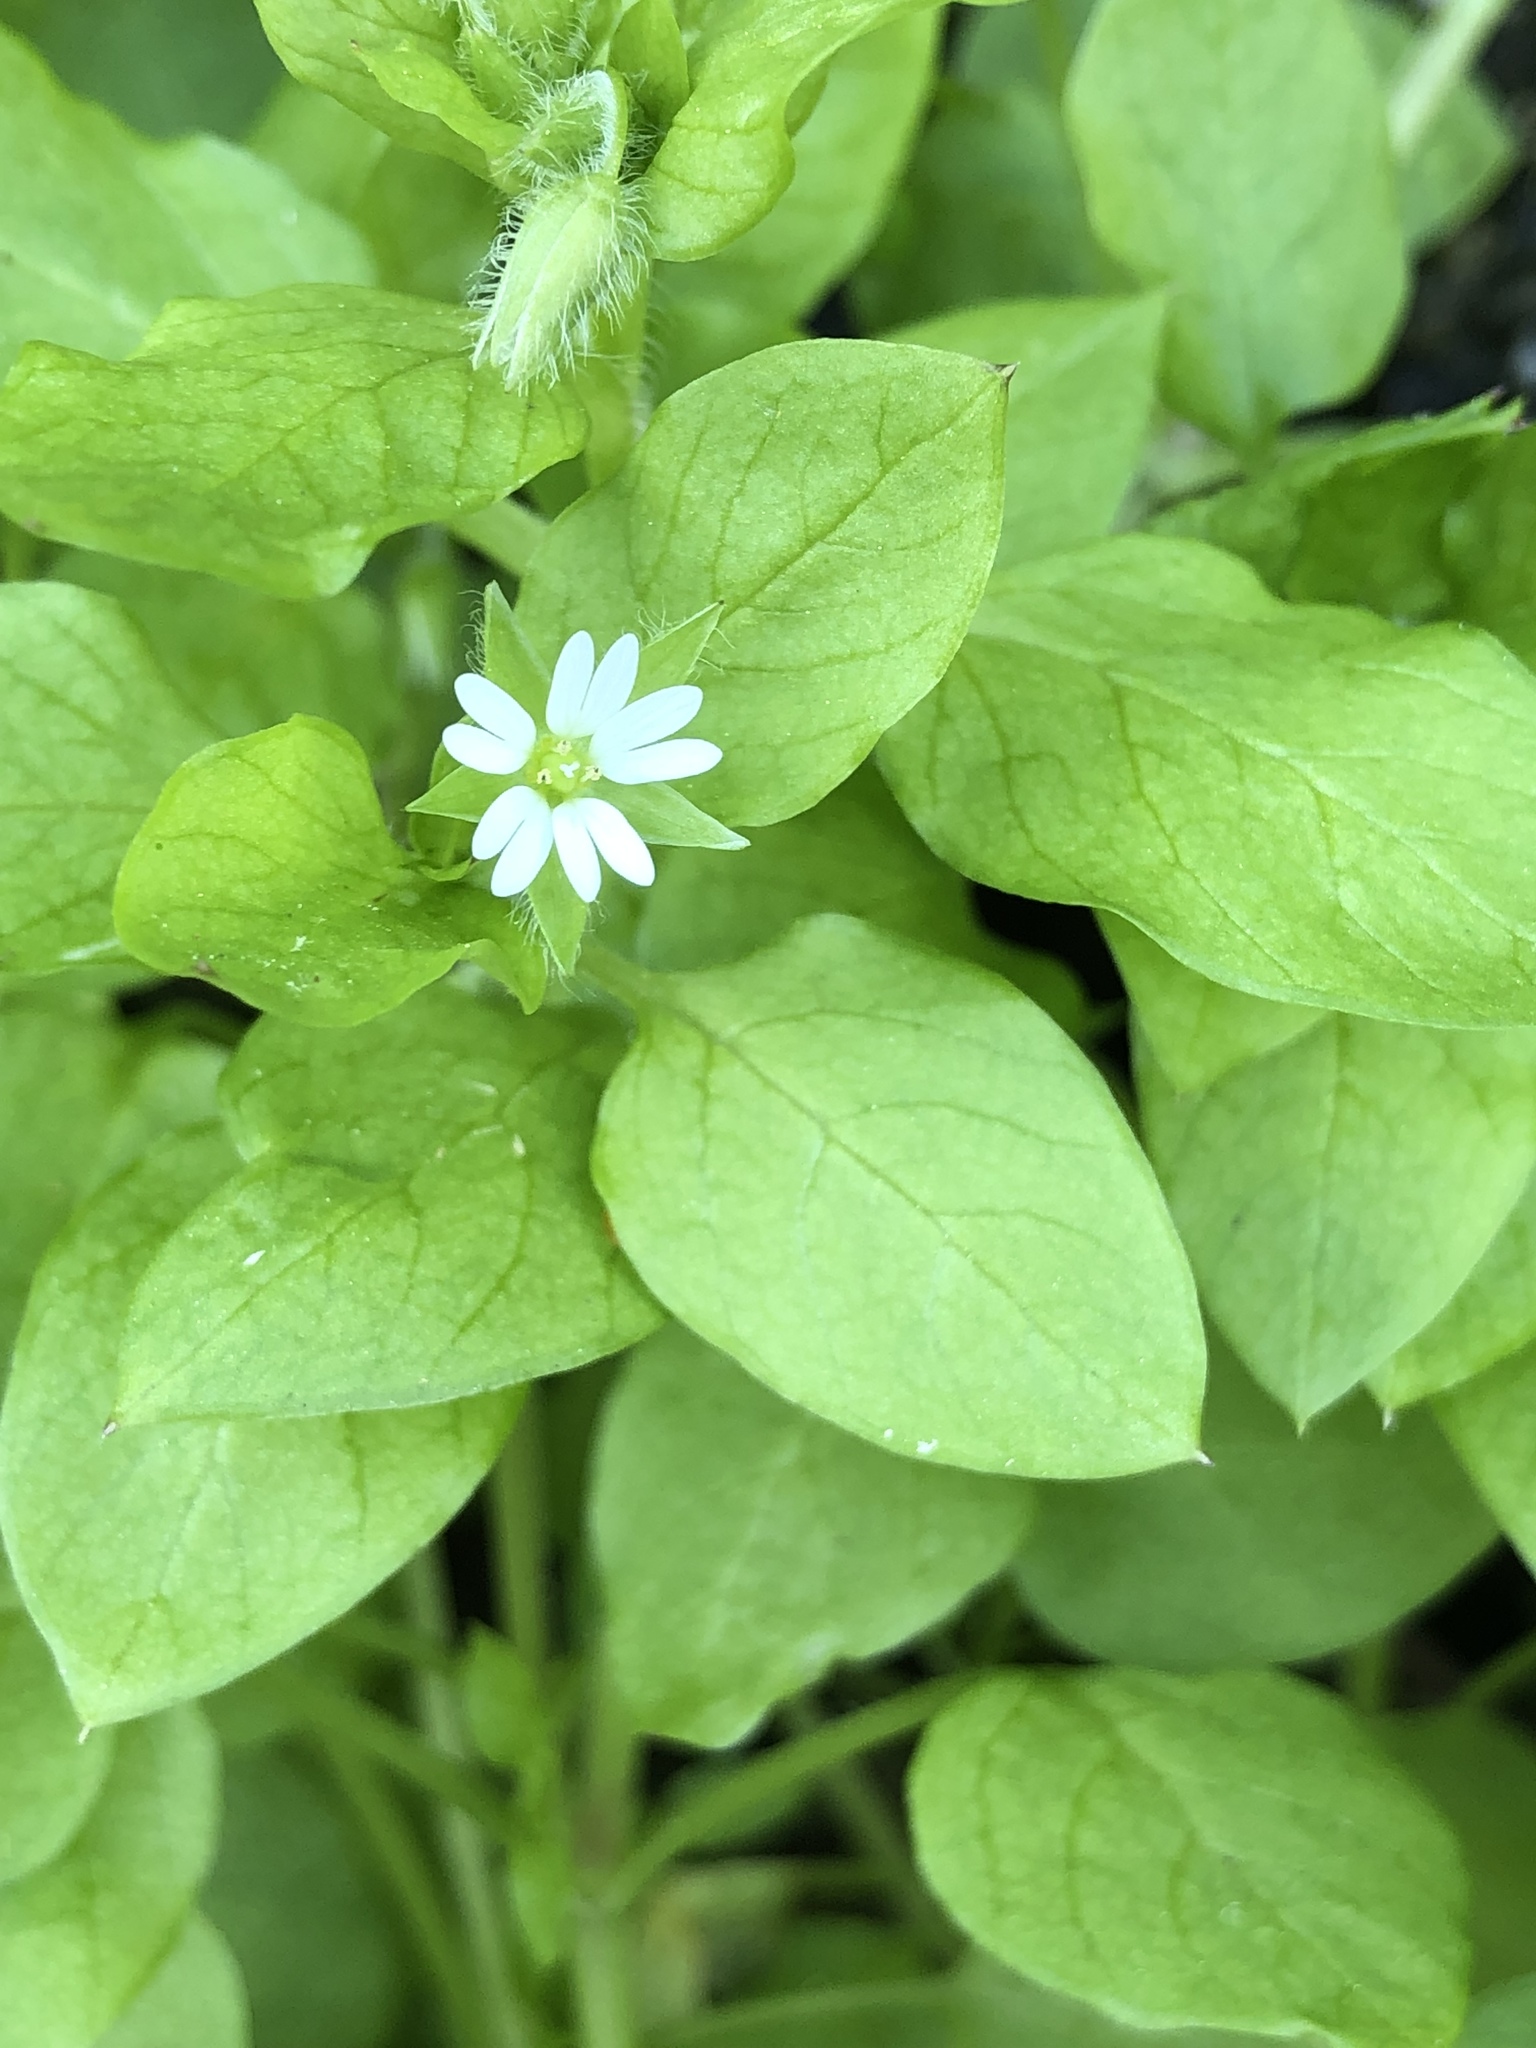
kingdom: Plantae
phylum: Tracheophyta
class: Magnoliopsida
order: Caryophyllales
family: Caryophyllaceae
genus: Stellaria
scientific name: Stellaria media
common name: Common chickweed
